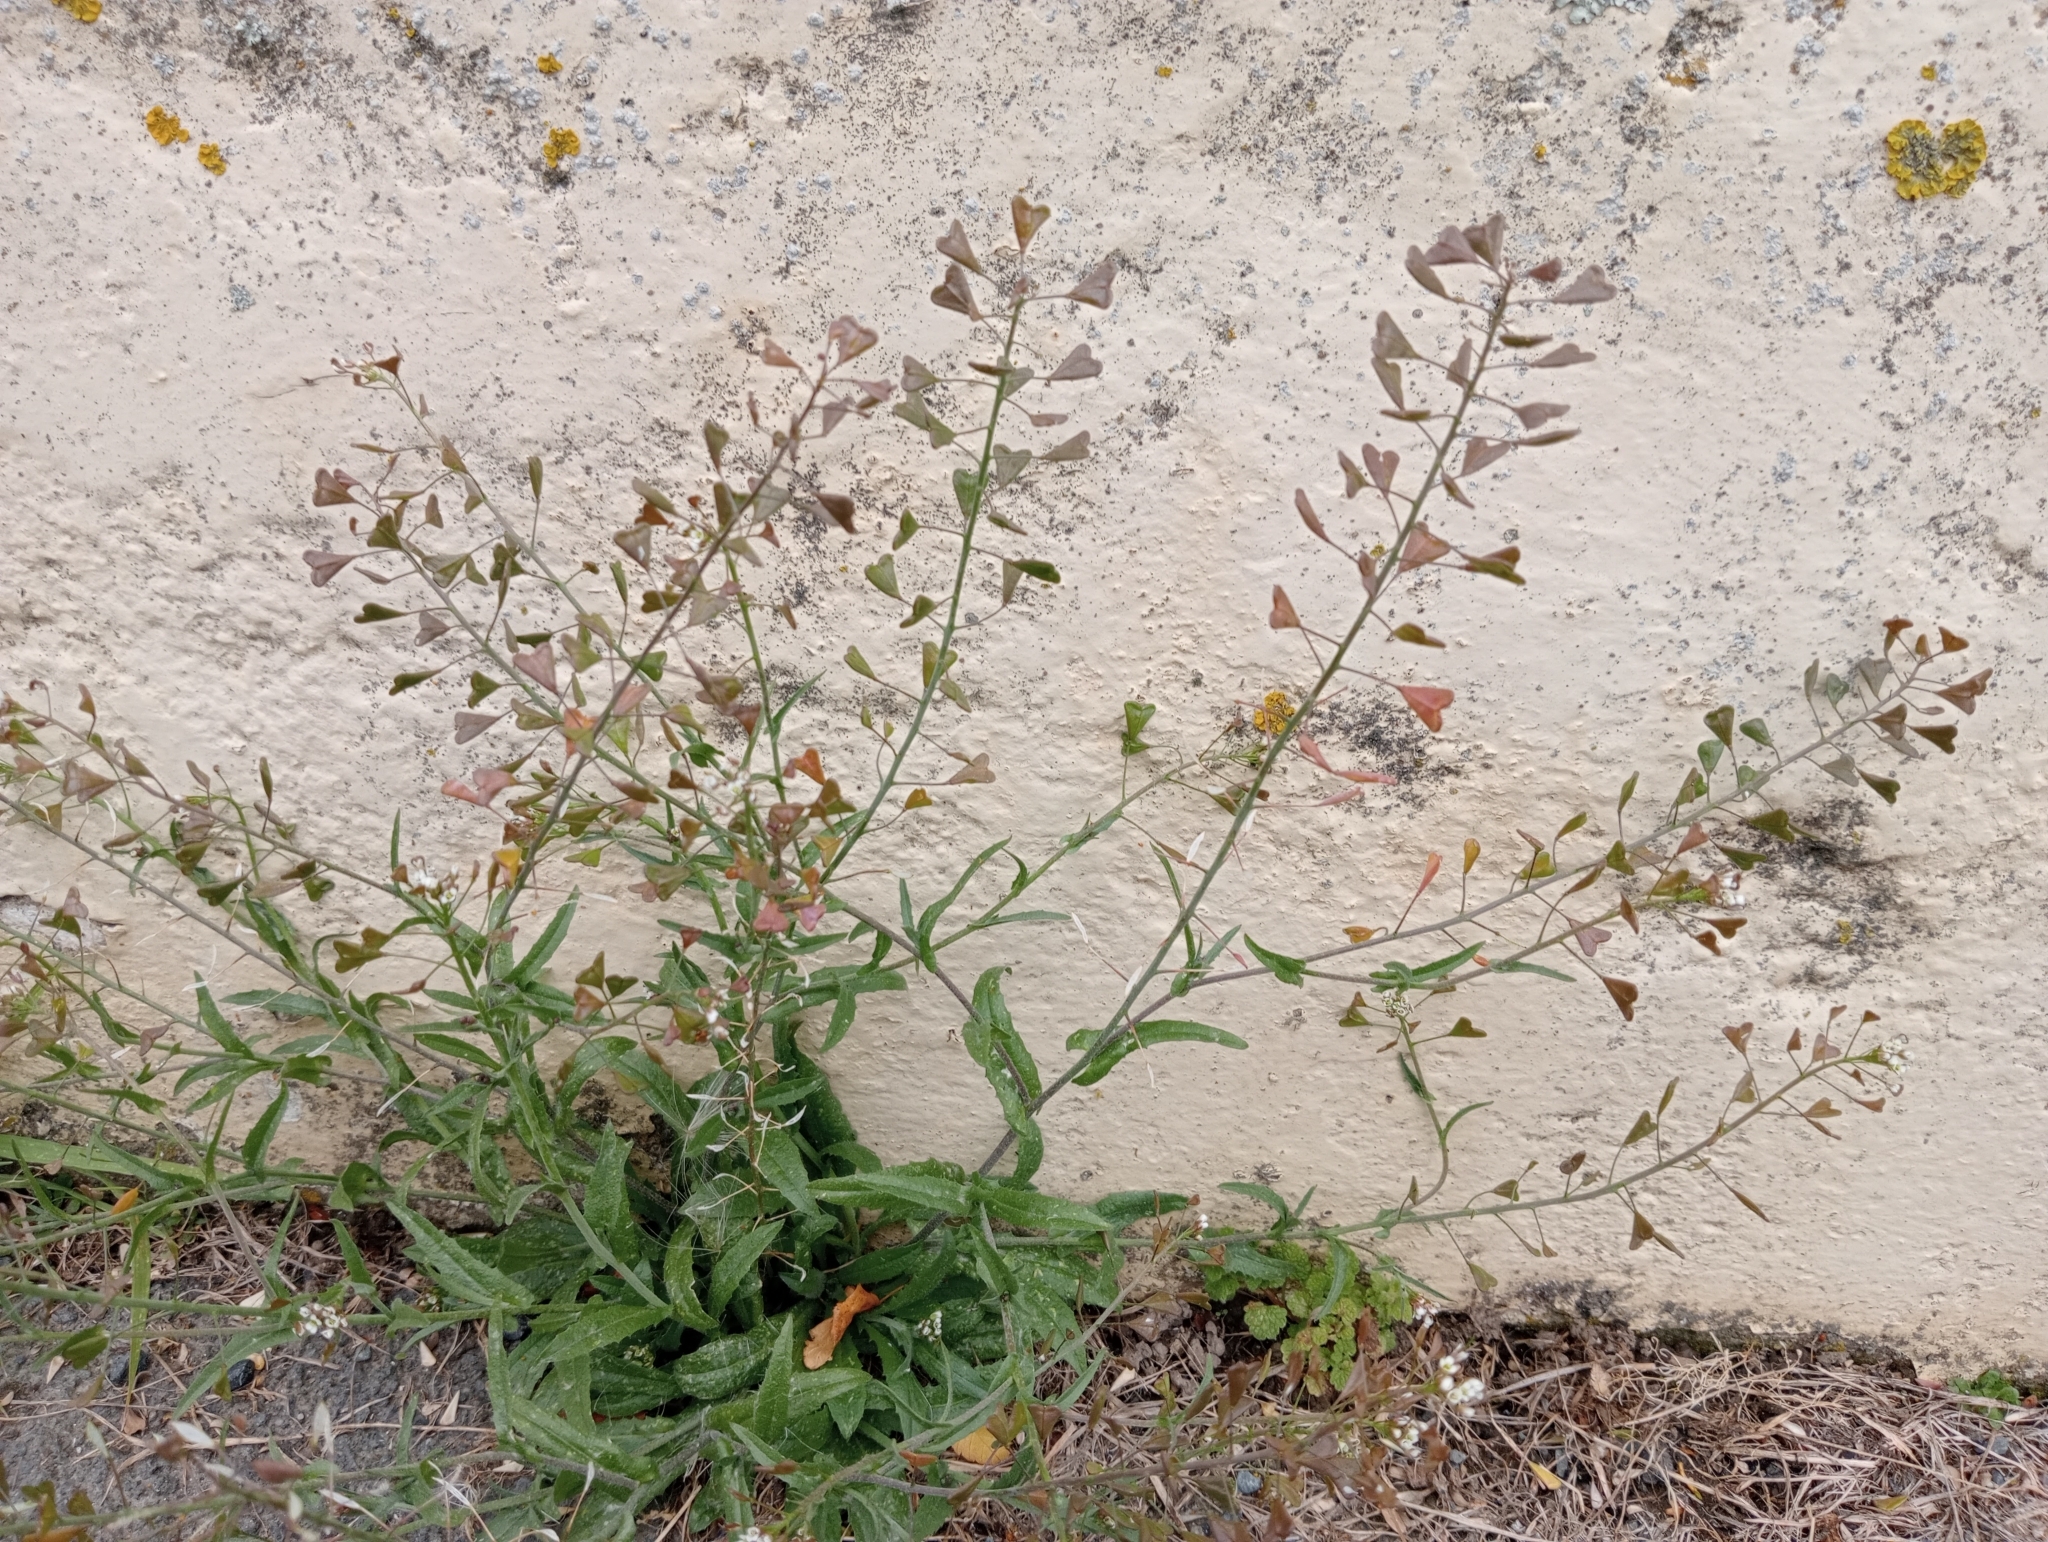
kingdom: Plantae
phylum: Tracheophyta
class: Magnoliopsida
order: Brassicales
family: Brassicaceae
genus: Capsella
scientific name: Capsella bursa-pastoris
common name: Shepherd's purse
